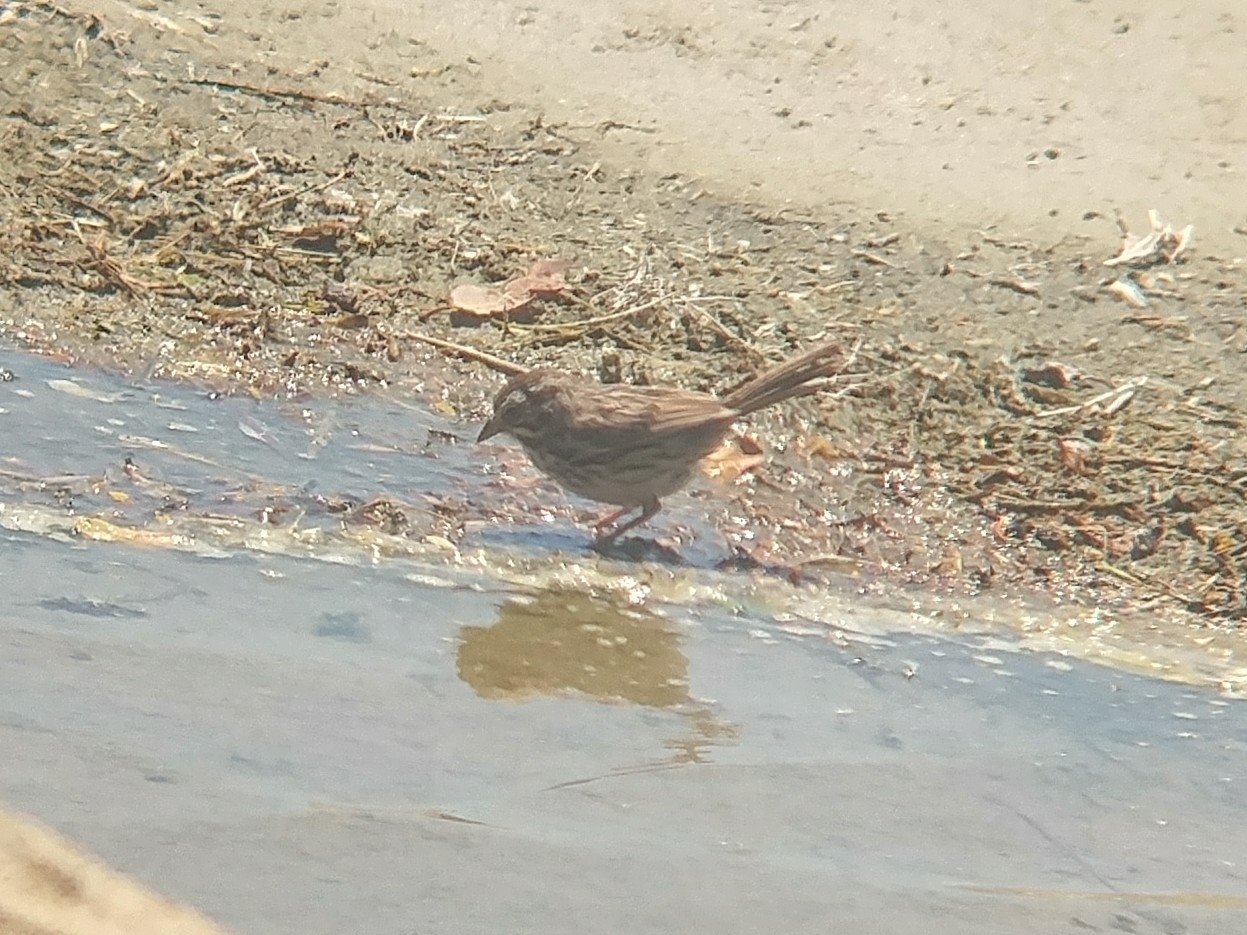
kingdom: Animalia
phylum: Chordata
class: Aves
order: Passeriformes
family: Passerellidae
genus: Melospiza
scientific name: Melospiza melodia
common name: Song sparrow
